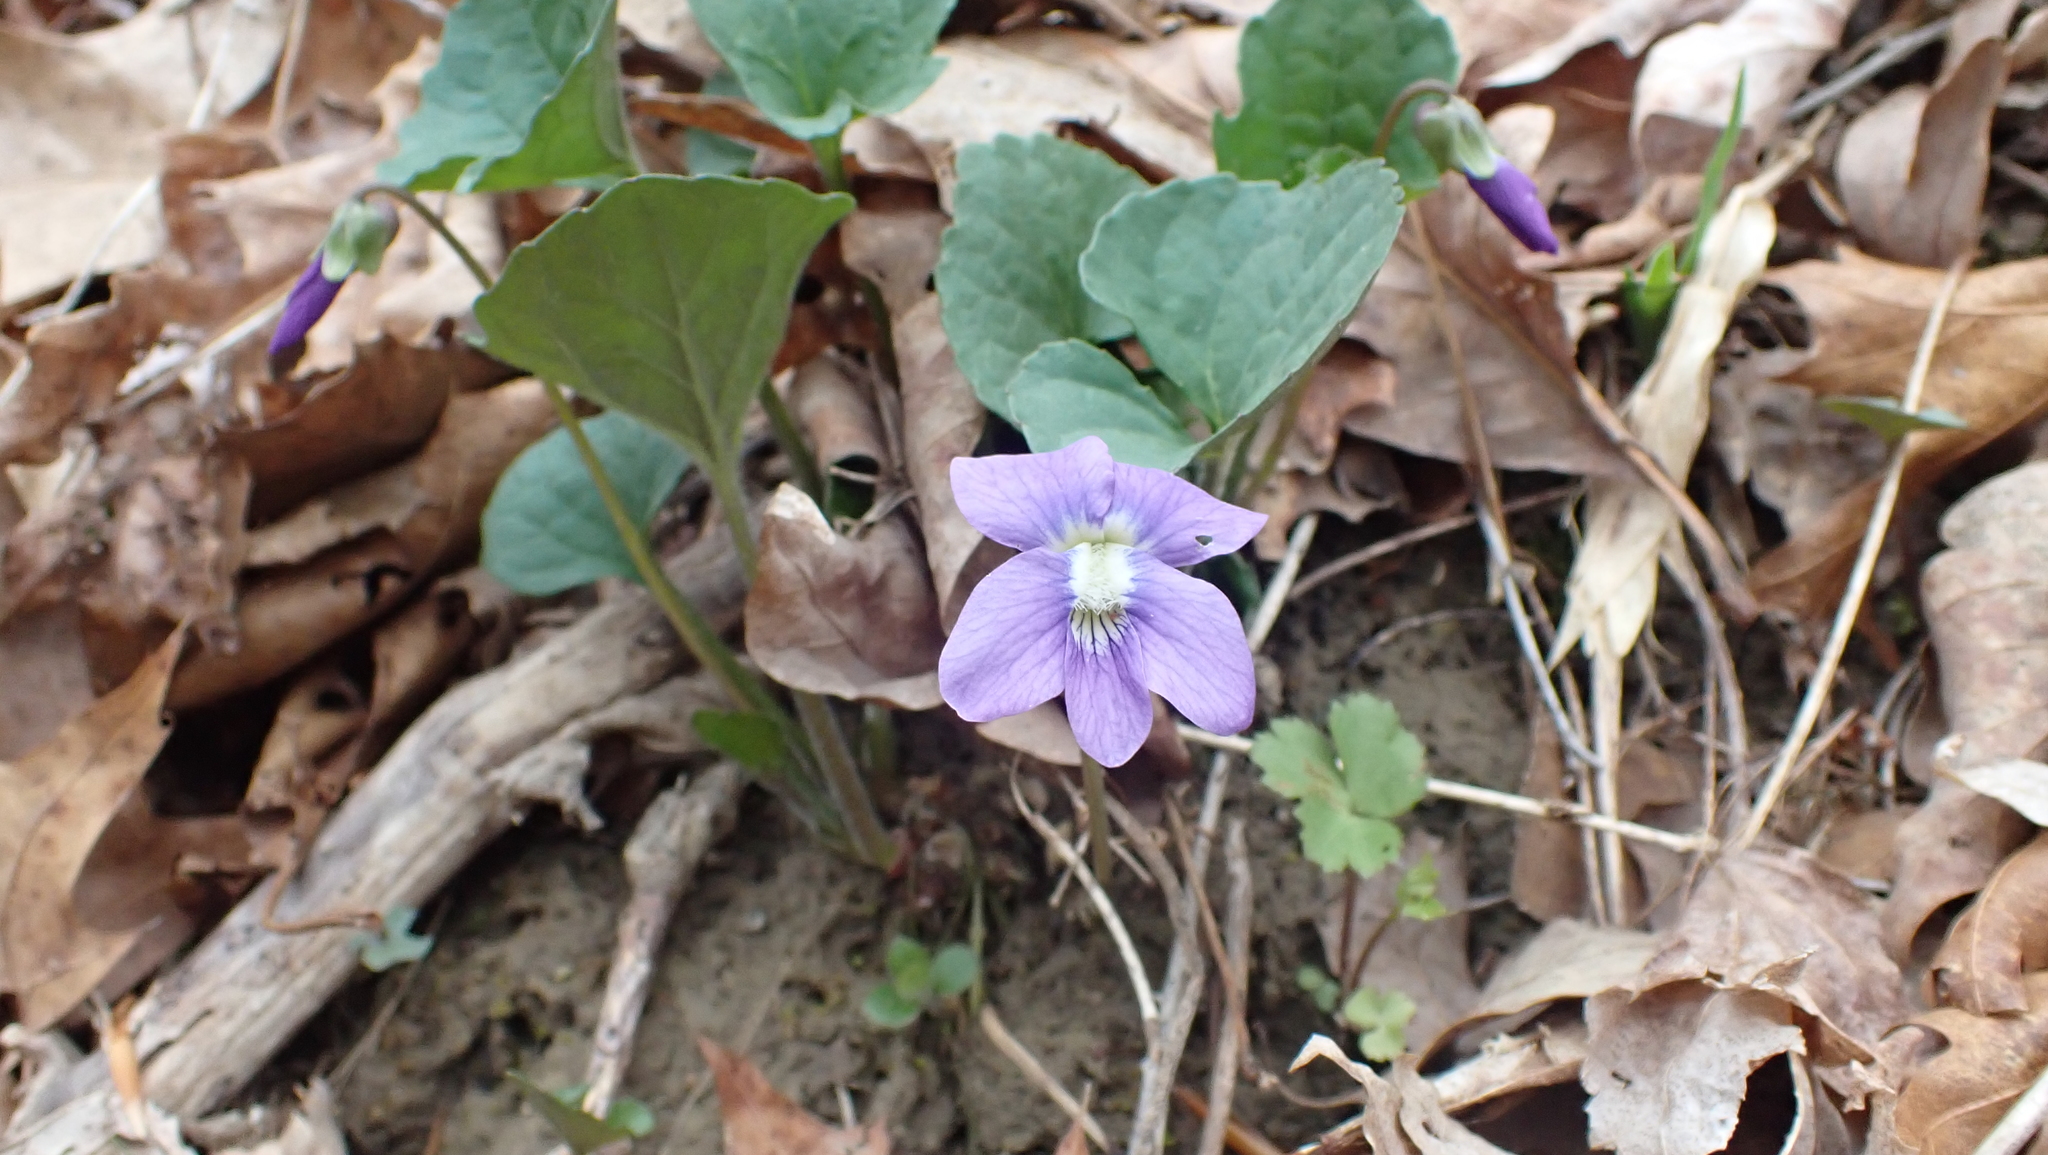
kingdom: Plantae
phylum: Tracheophyta
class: Magnoliopsida
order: Malpighiales
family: Violaceae
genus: Viola
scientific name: Viola sororia
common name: Dooryard violet
